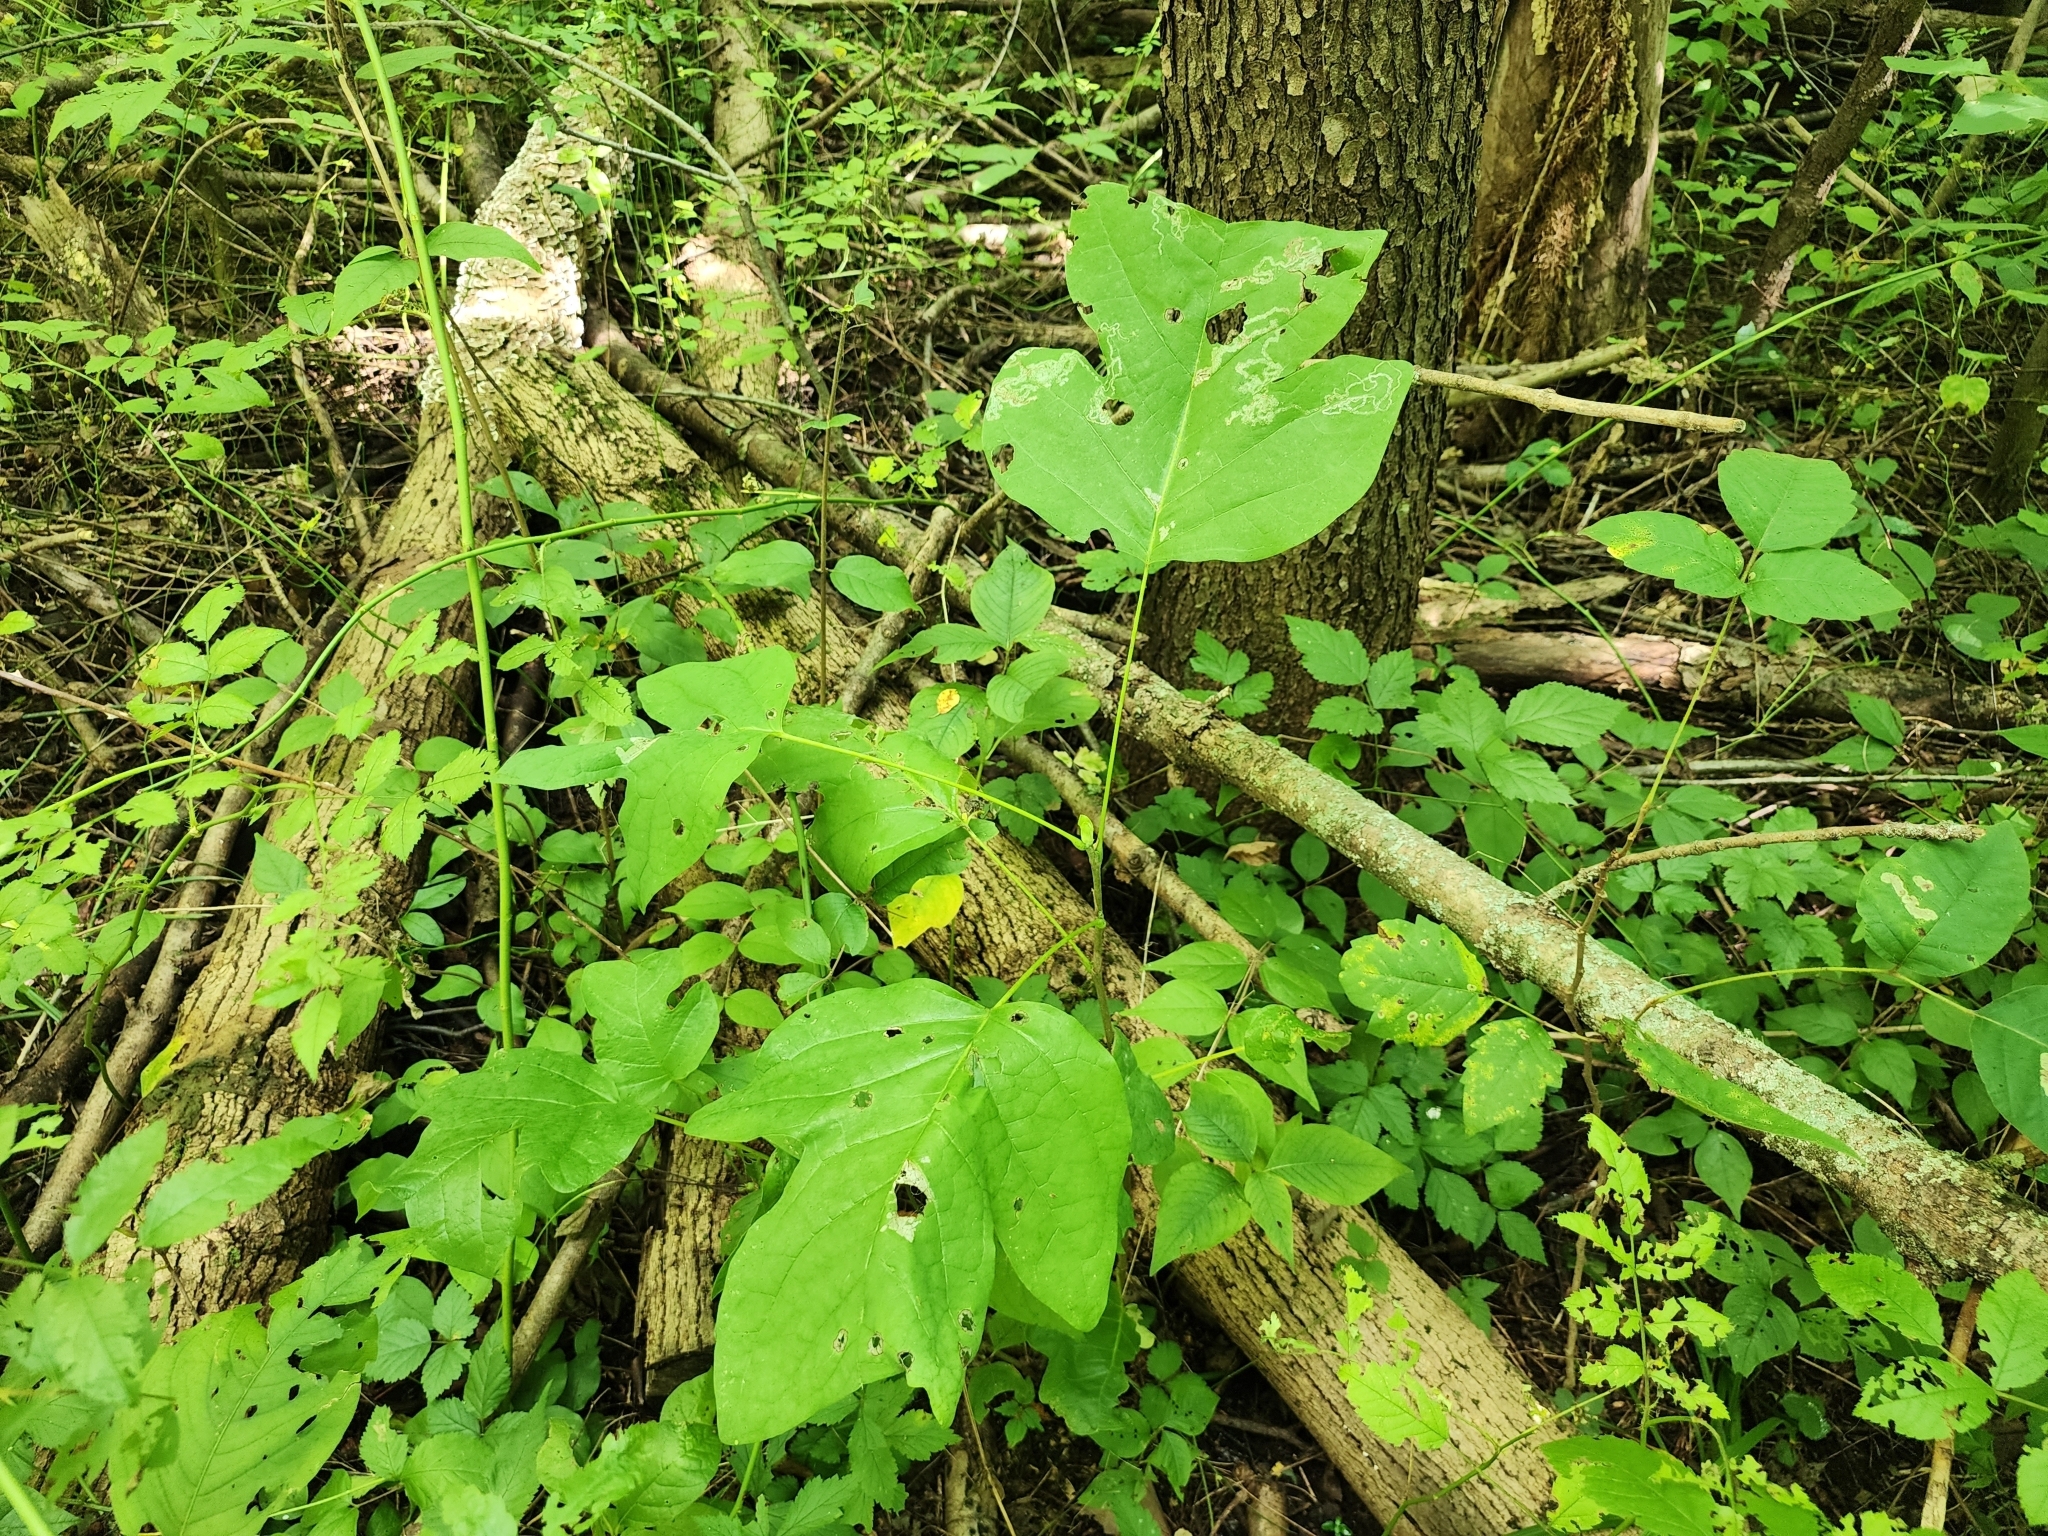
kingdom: Plantae
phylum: Tracheophyta
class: Magnoliopsida
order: Magnoliales
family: Magnoliaceae
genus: Liriodendron
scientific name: Liriodendron tulipifera
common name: Tulip tree
